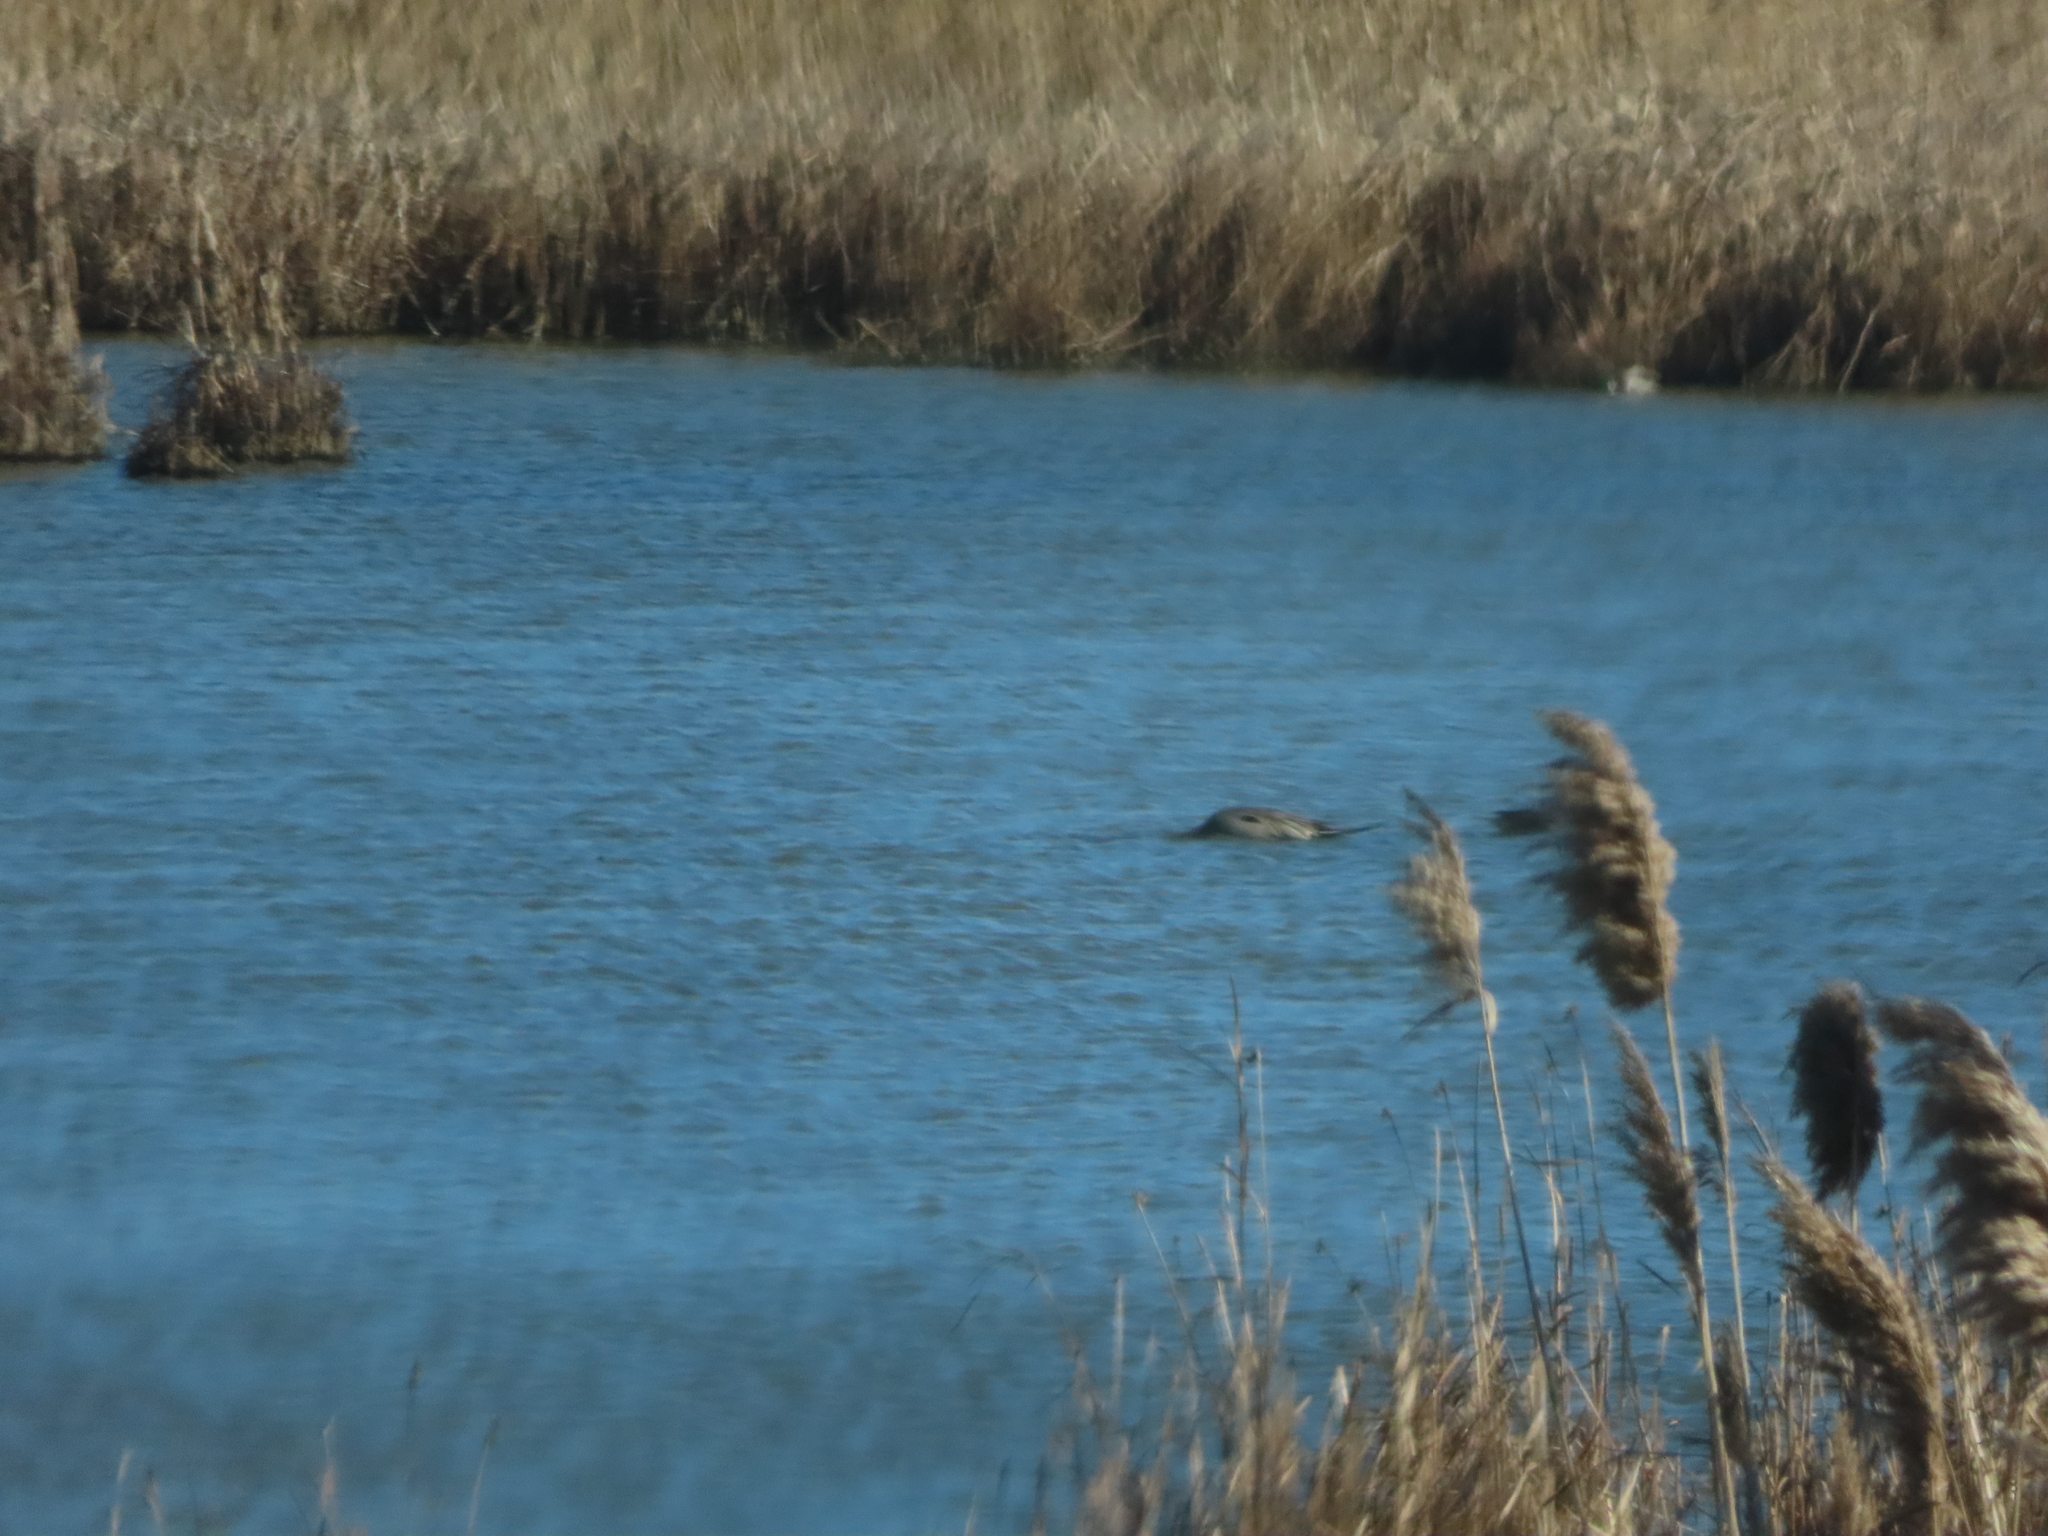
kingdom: Animalia
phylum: Chordata
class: Aves
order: Anseriformes
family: Anatidae
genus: Anas
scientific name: Anas acuta
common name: Northern pintail
